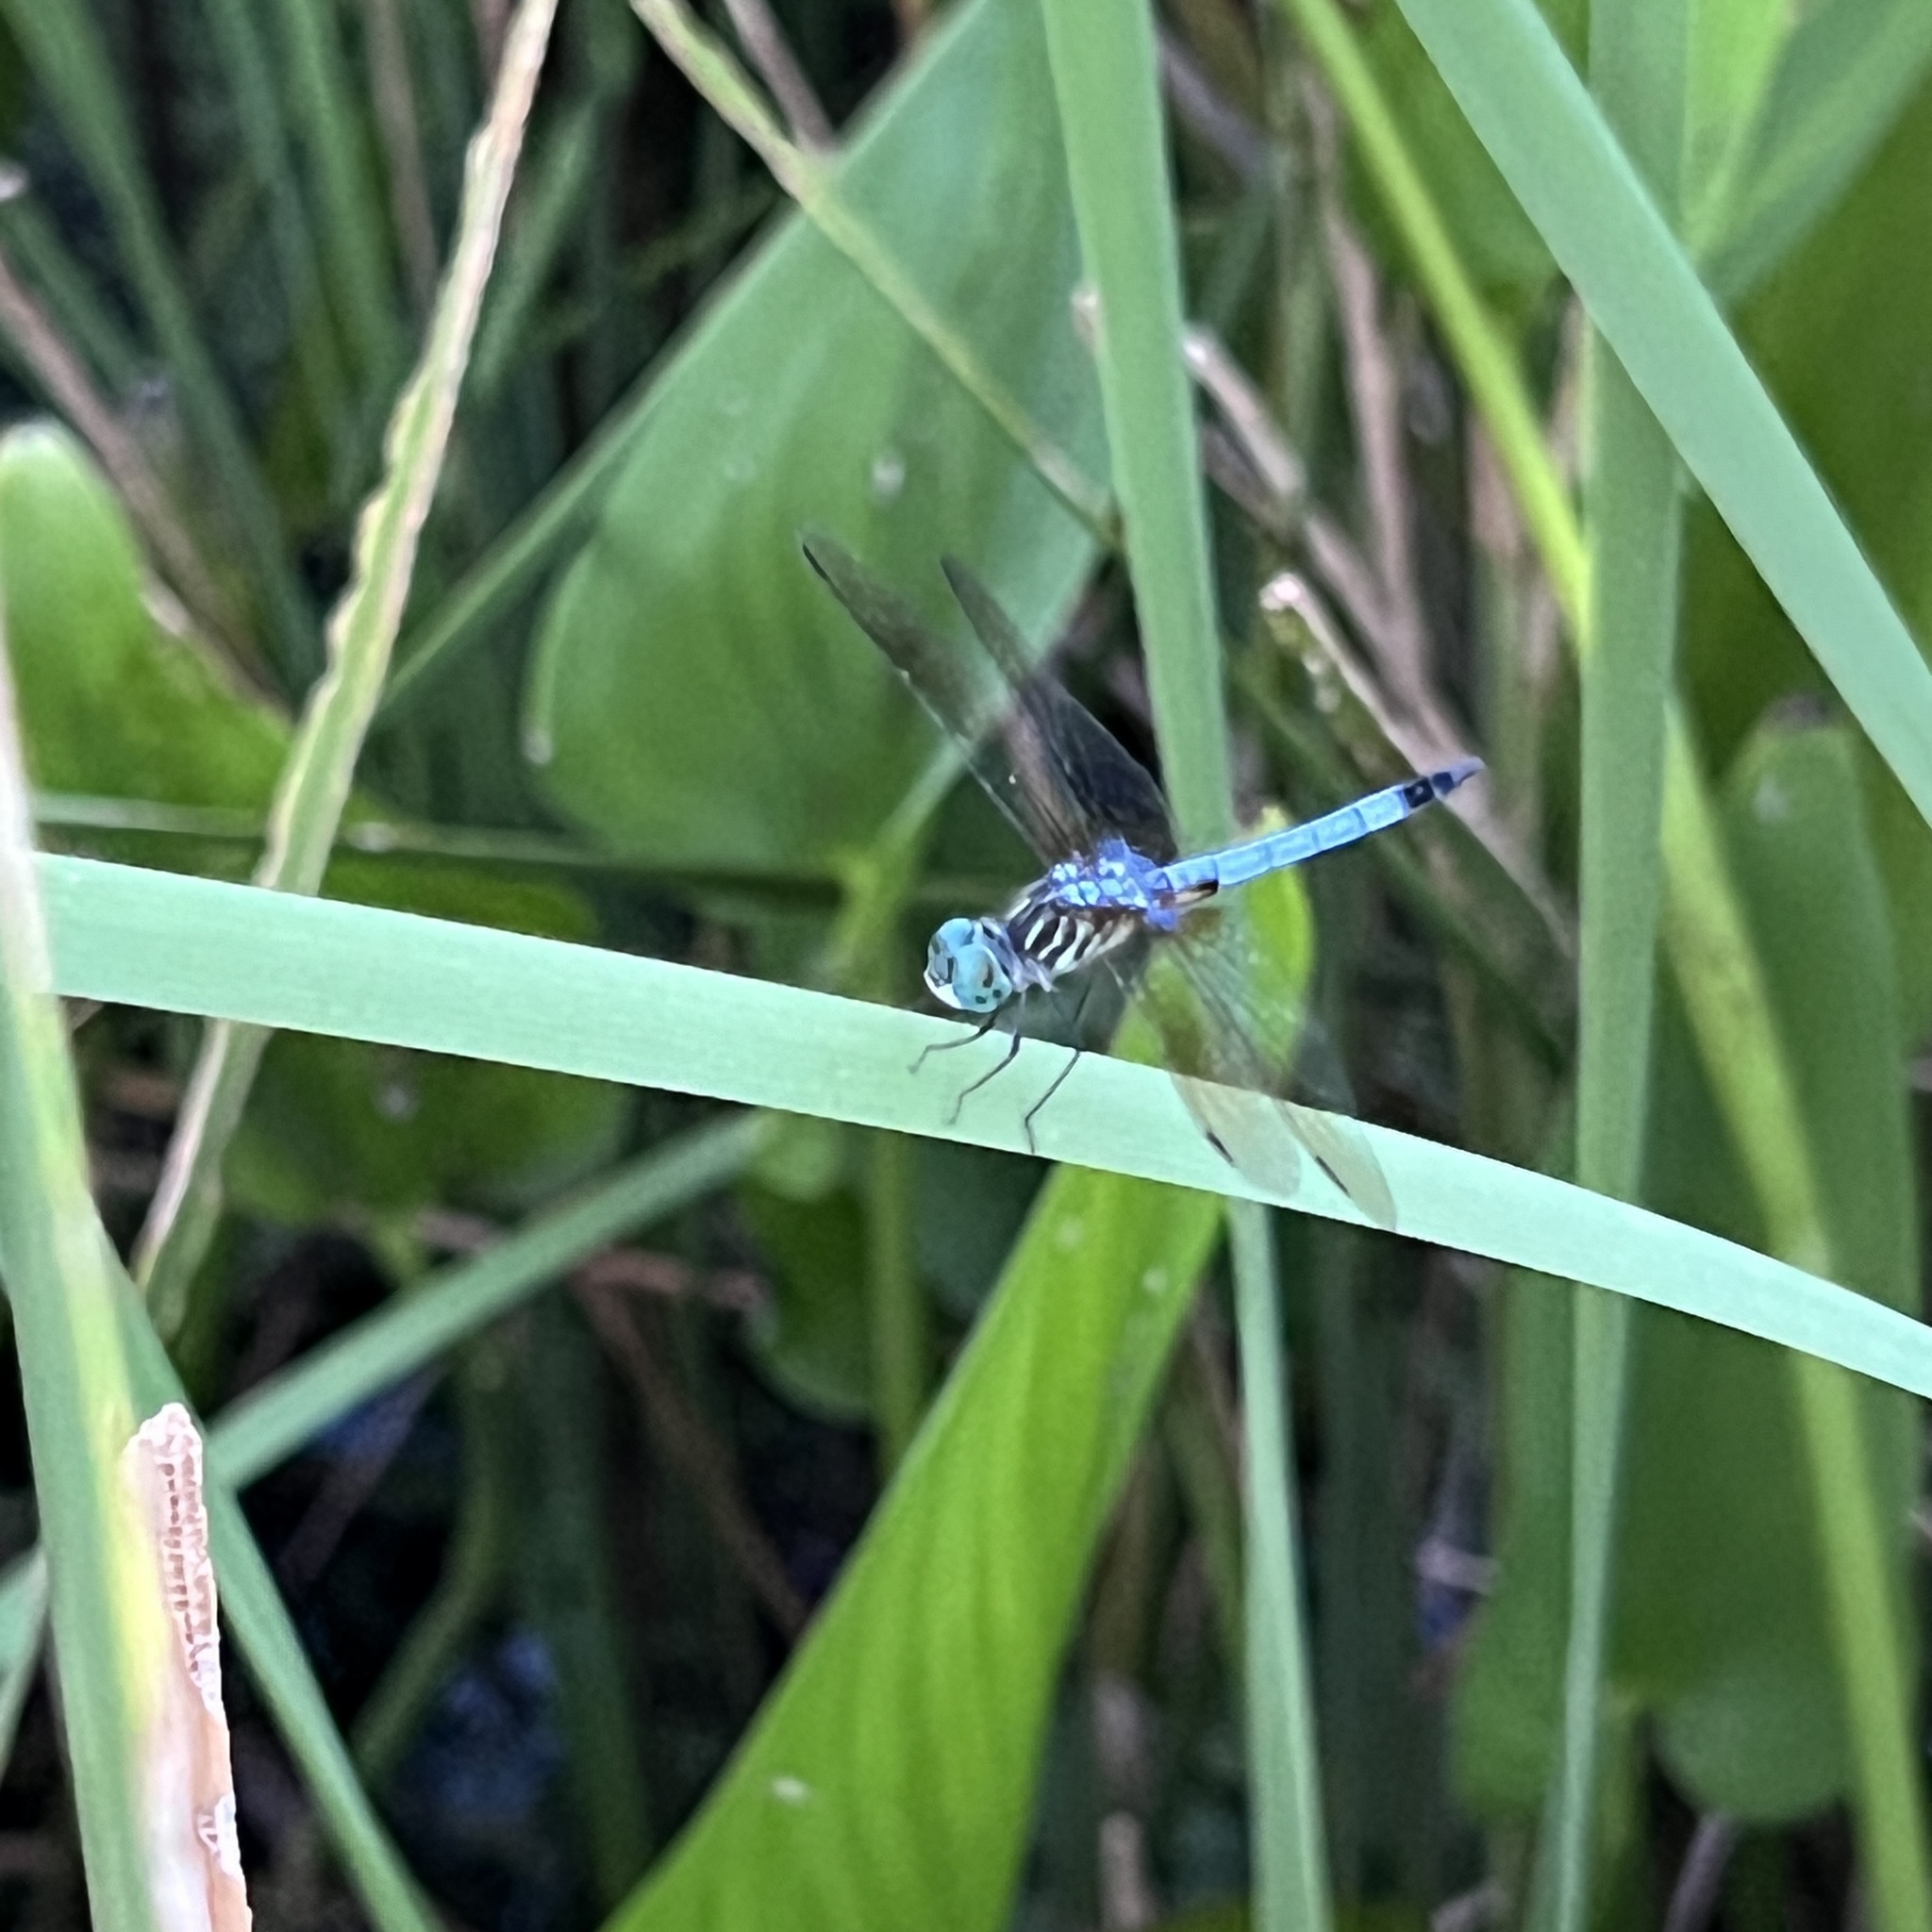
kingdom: Animalia
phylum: Arthropoda
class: Insecta
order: Odonata
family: Libellulidae
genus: Pachydiplax
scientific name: Pachydiplax longipennis
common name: Blue dasher
